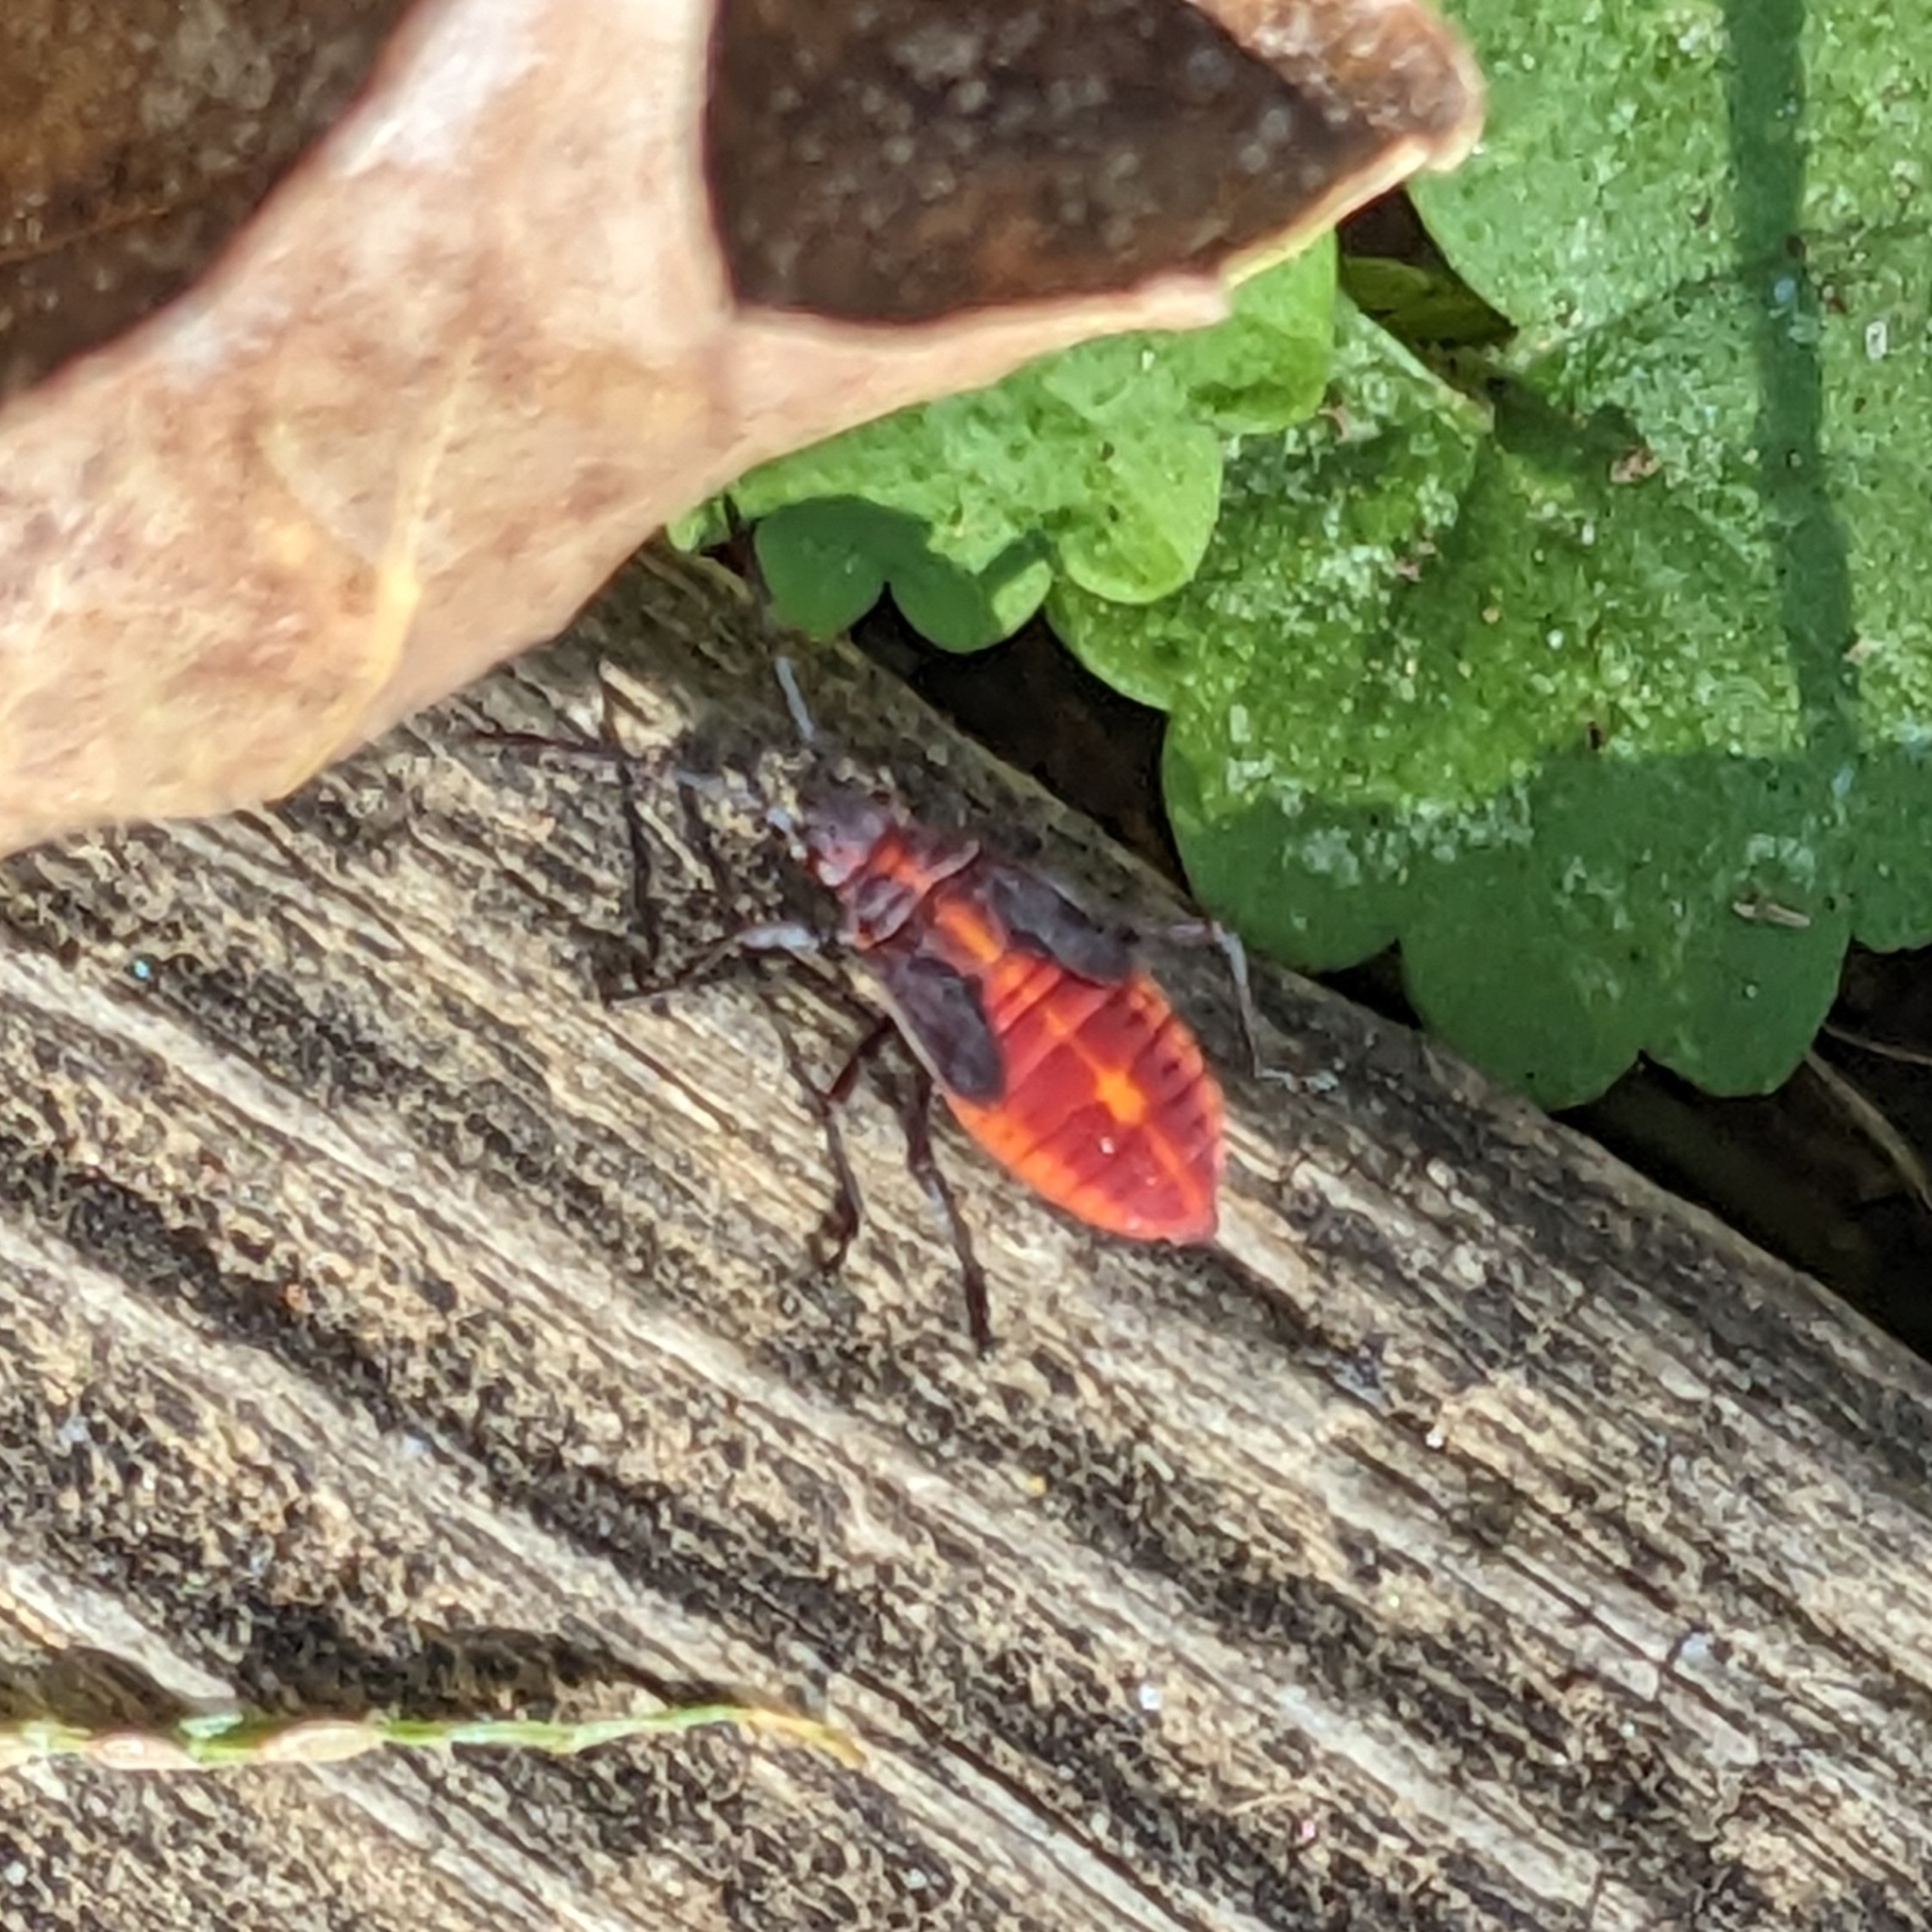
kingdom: Animalia
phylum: Arthropoda
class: Insecta
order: Hemiptera
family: Rhopalidae
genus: Boisea
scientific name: Boisea trivittata
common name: Boxelder bug
